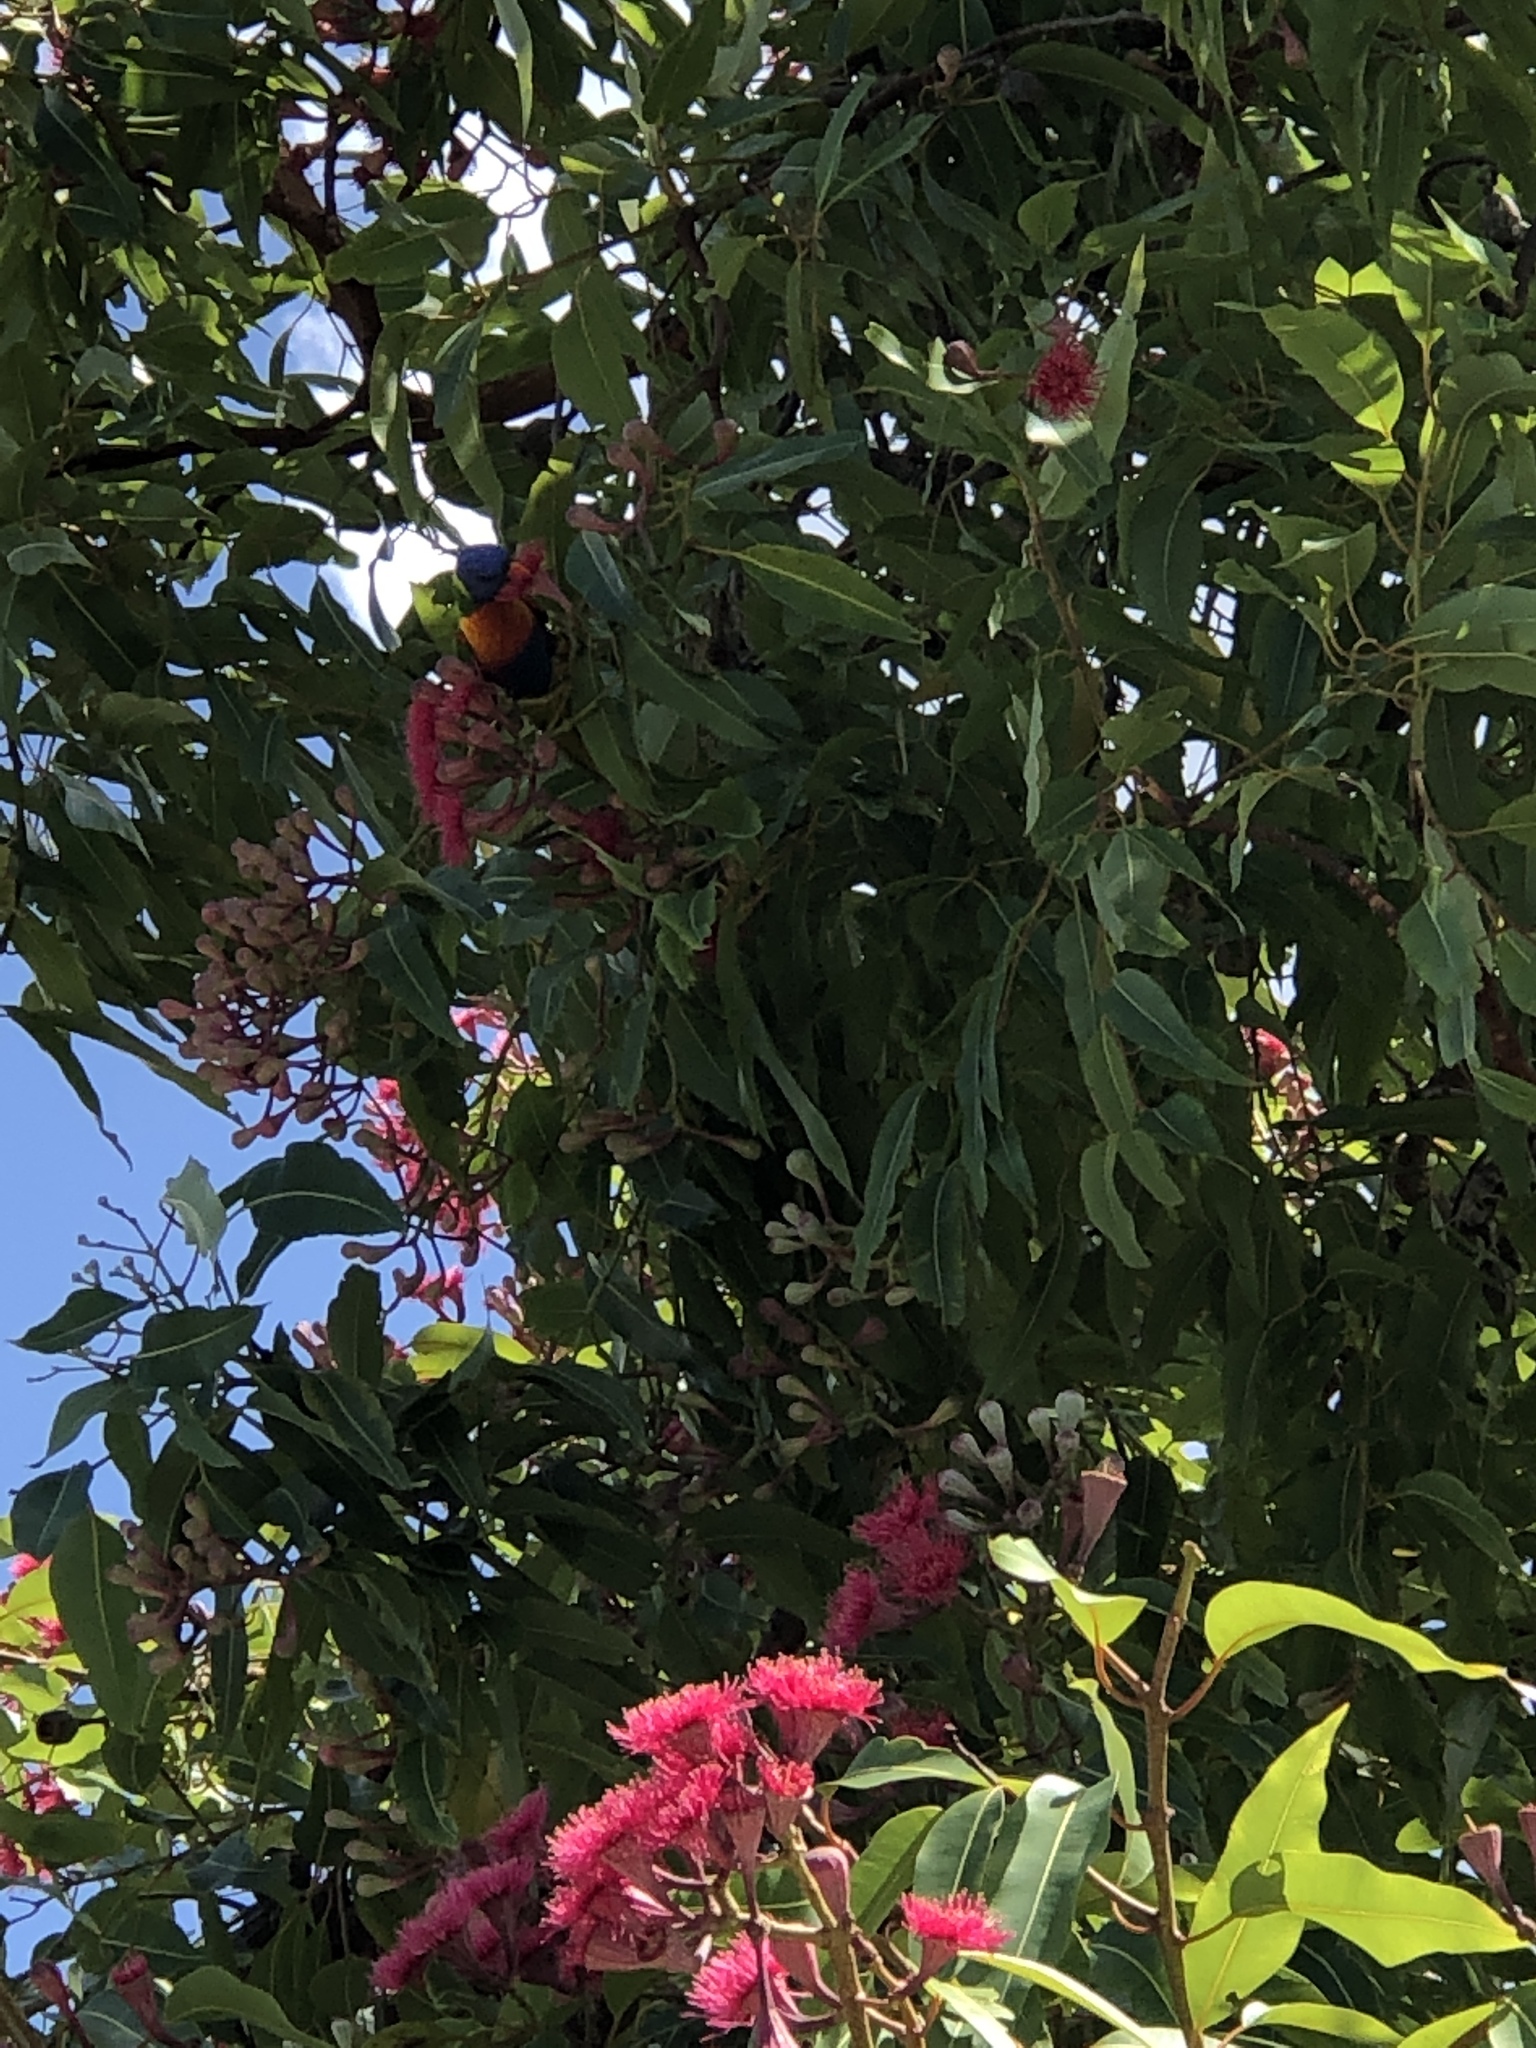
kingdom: Animalia
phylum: Chordata
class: Aves
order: Psittaciformes
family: Psittacidae
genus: Trichoglossus
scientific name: Trichoglossus haematodus
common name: Coconut lorikeet
